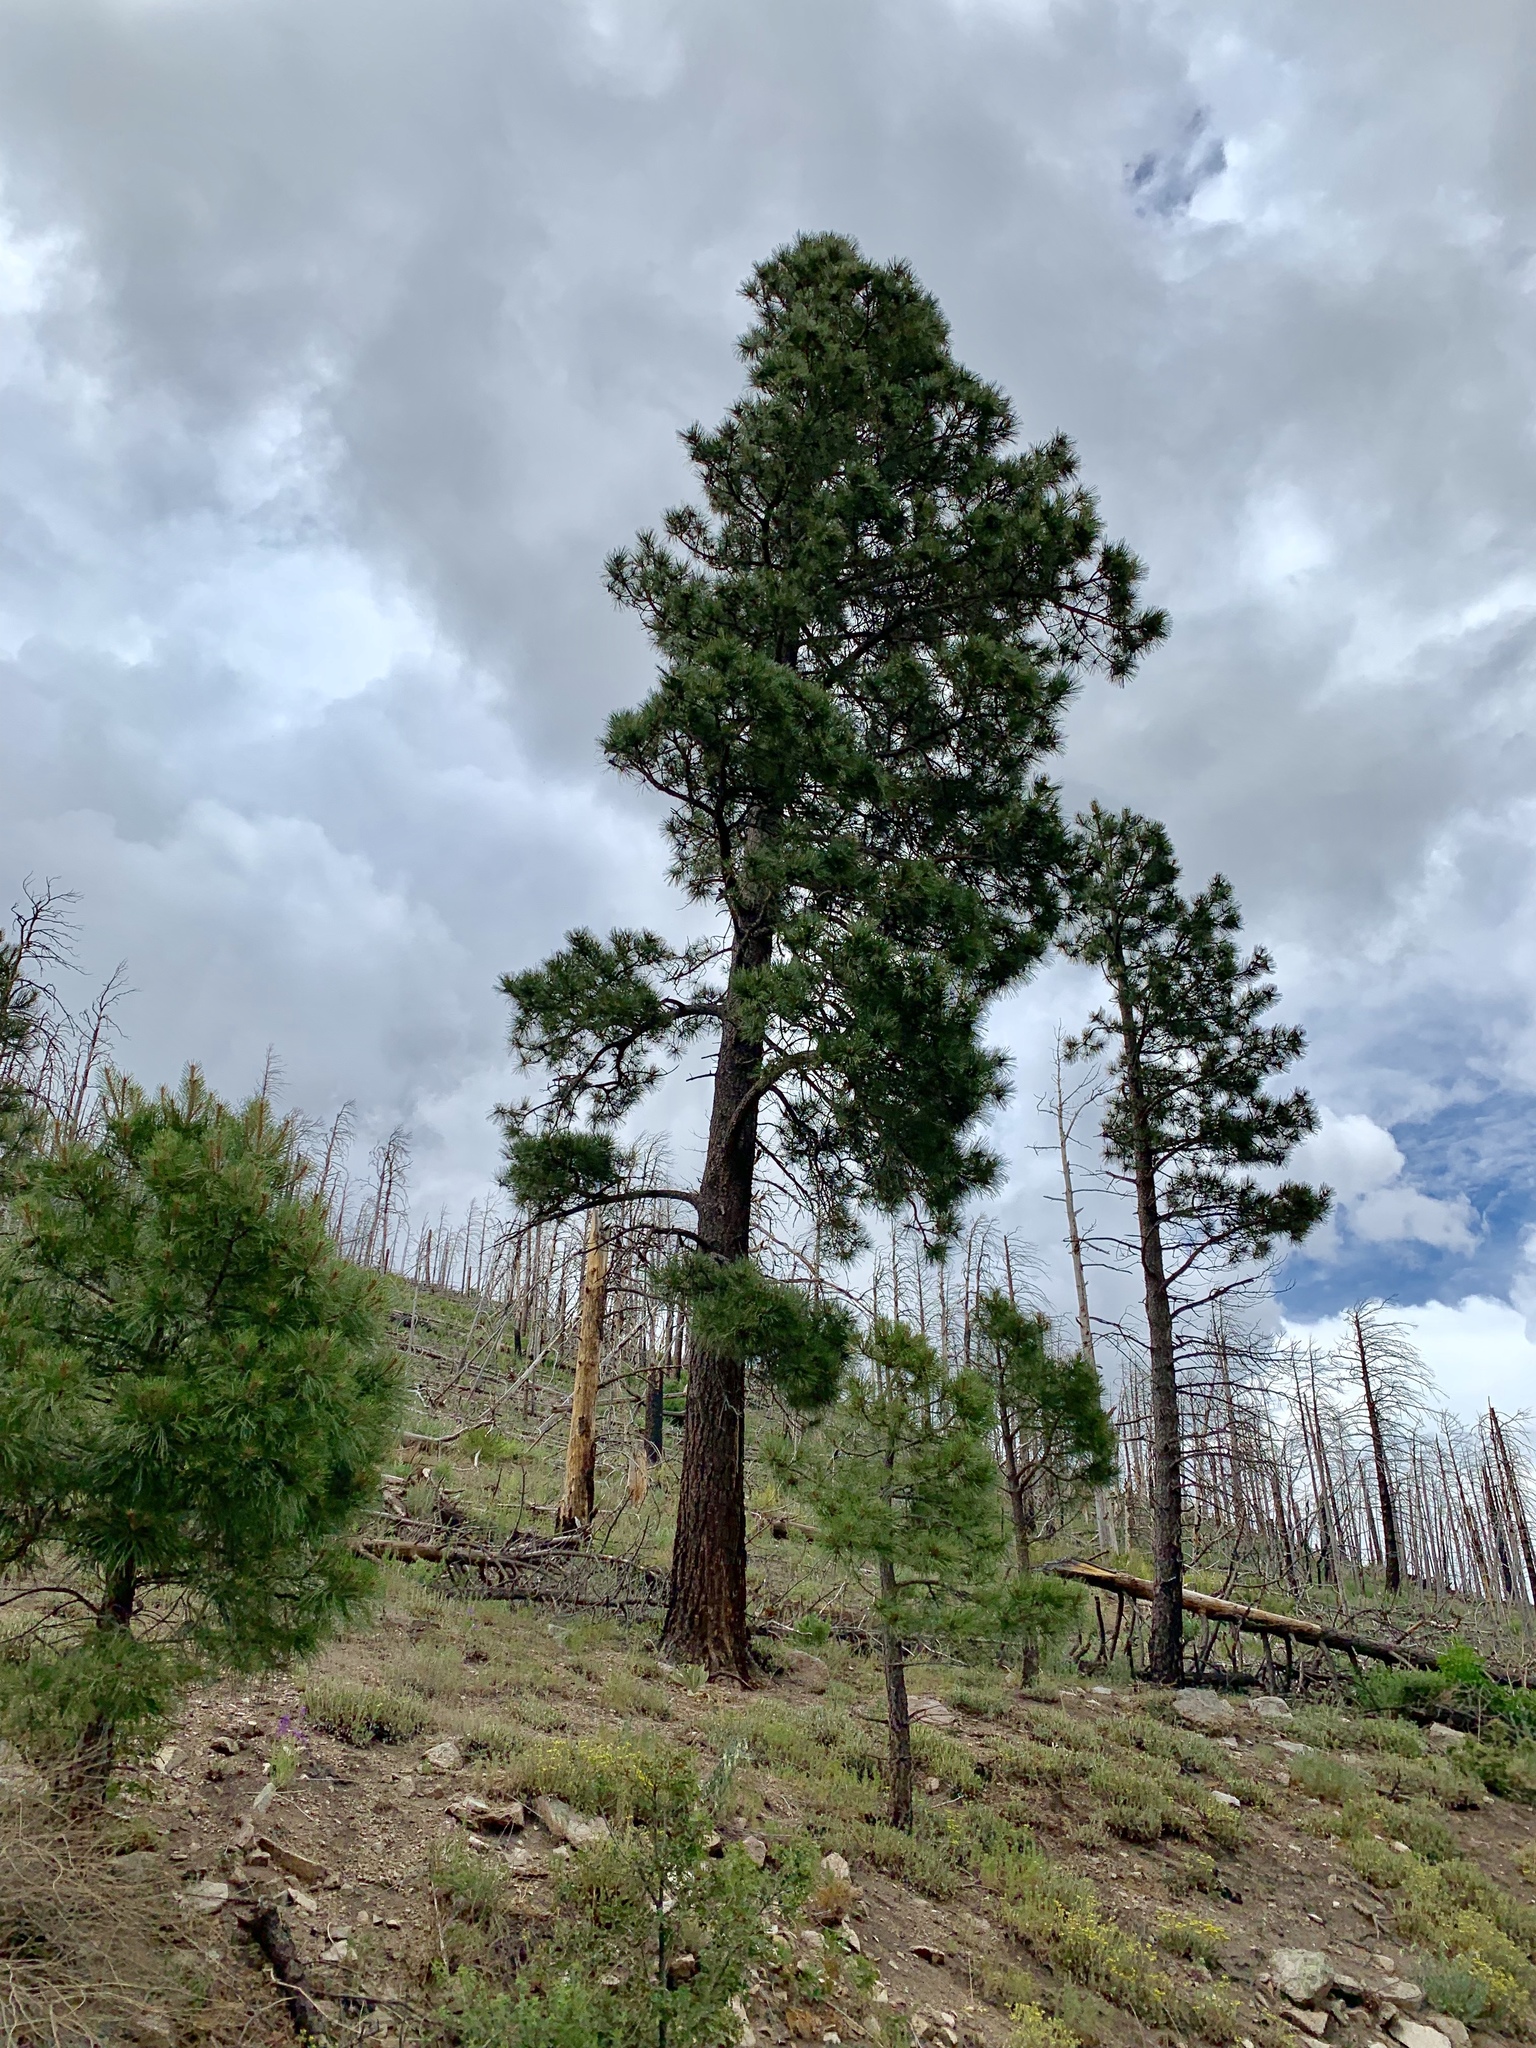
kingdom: Plantae
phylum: Tracheophyta
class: Pinopsida
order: Pinales
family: Pinaceae
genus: Pinus
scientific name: Pinus ponderosa
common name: Western yellow-pine
